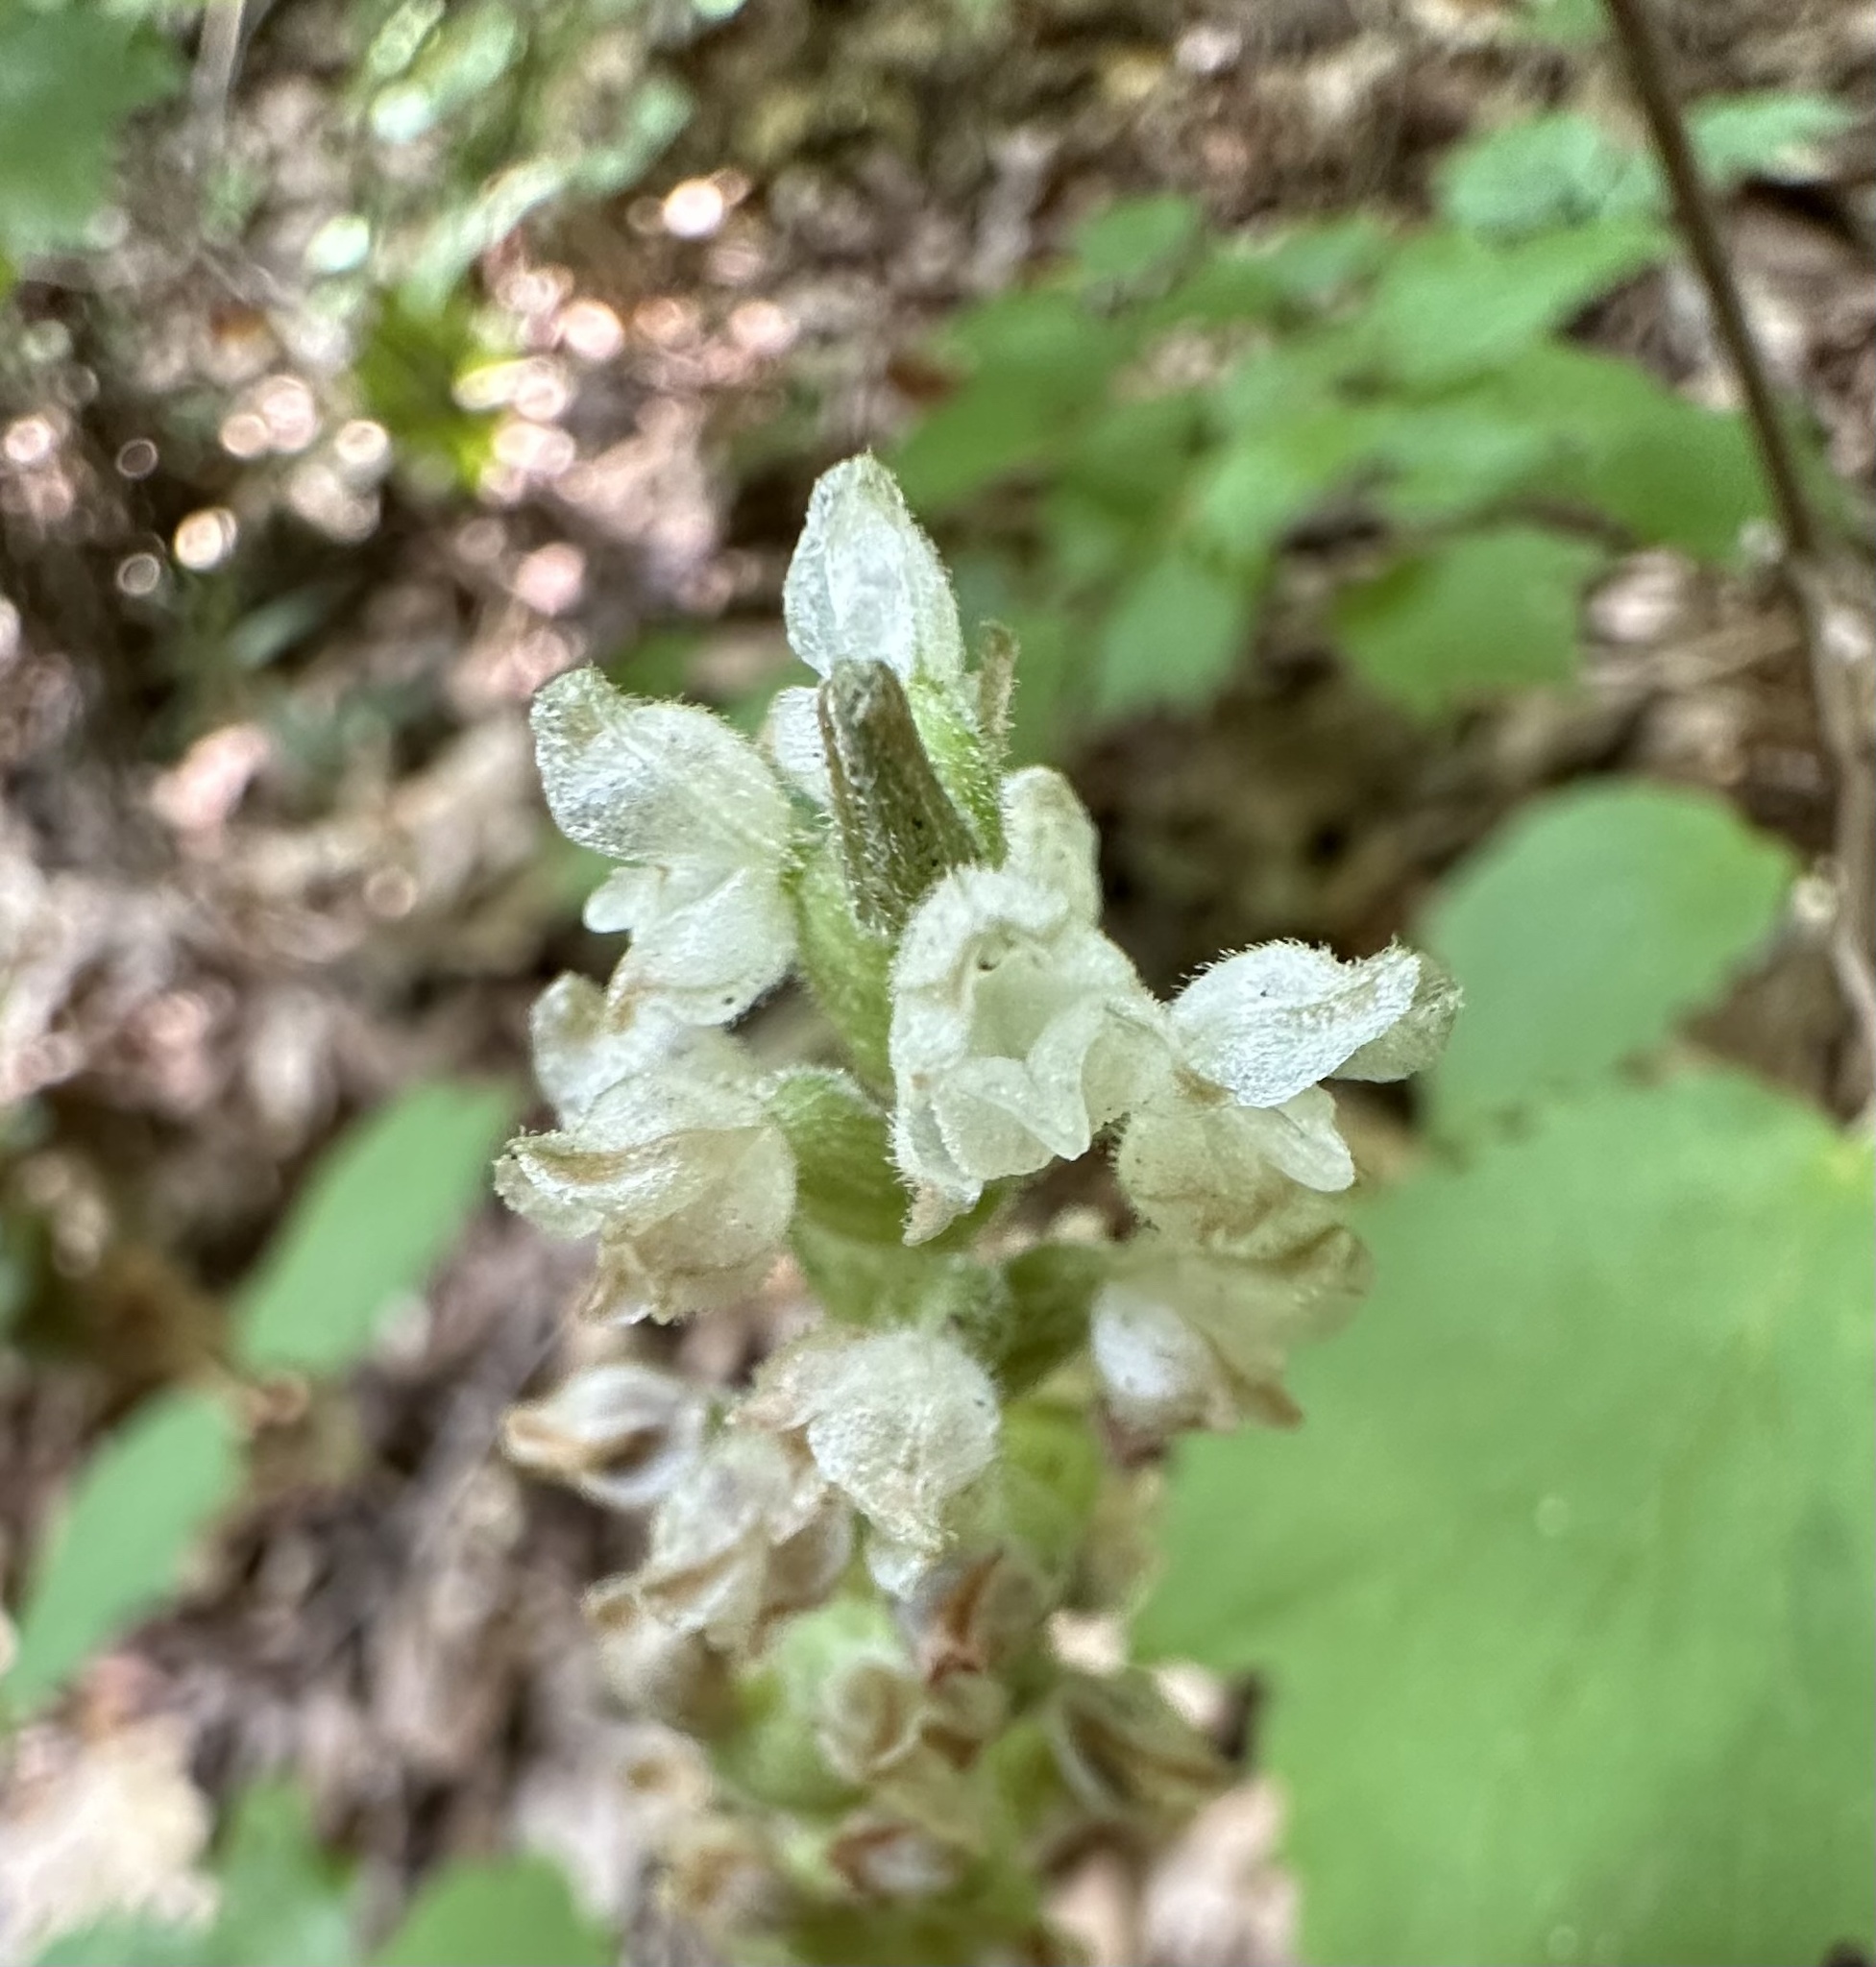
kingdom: Plantae
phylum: Tracheophyta
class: Liliopsida
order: Asparagales
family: Orchidaceae
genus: Goodyera
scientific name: Goodyera pubescens
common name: Downy rattlesnake-plantain
